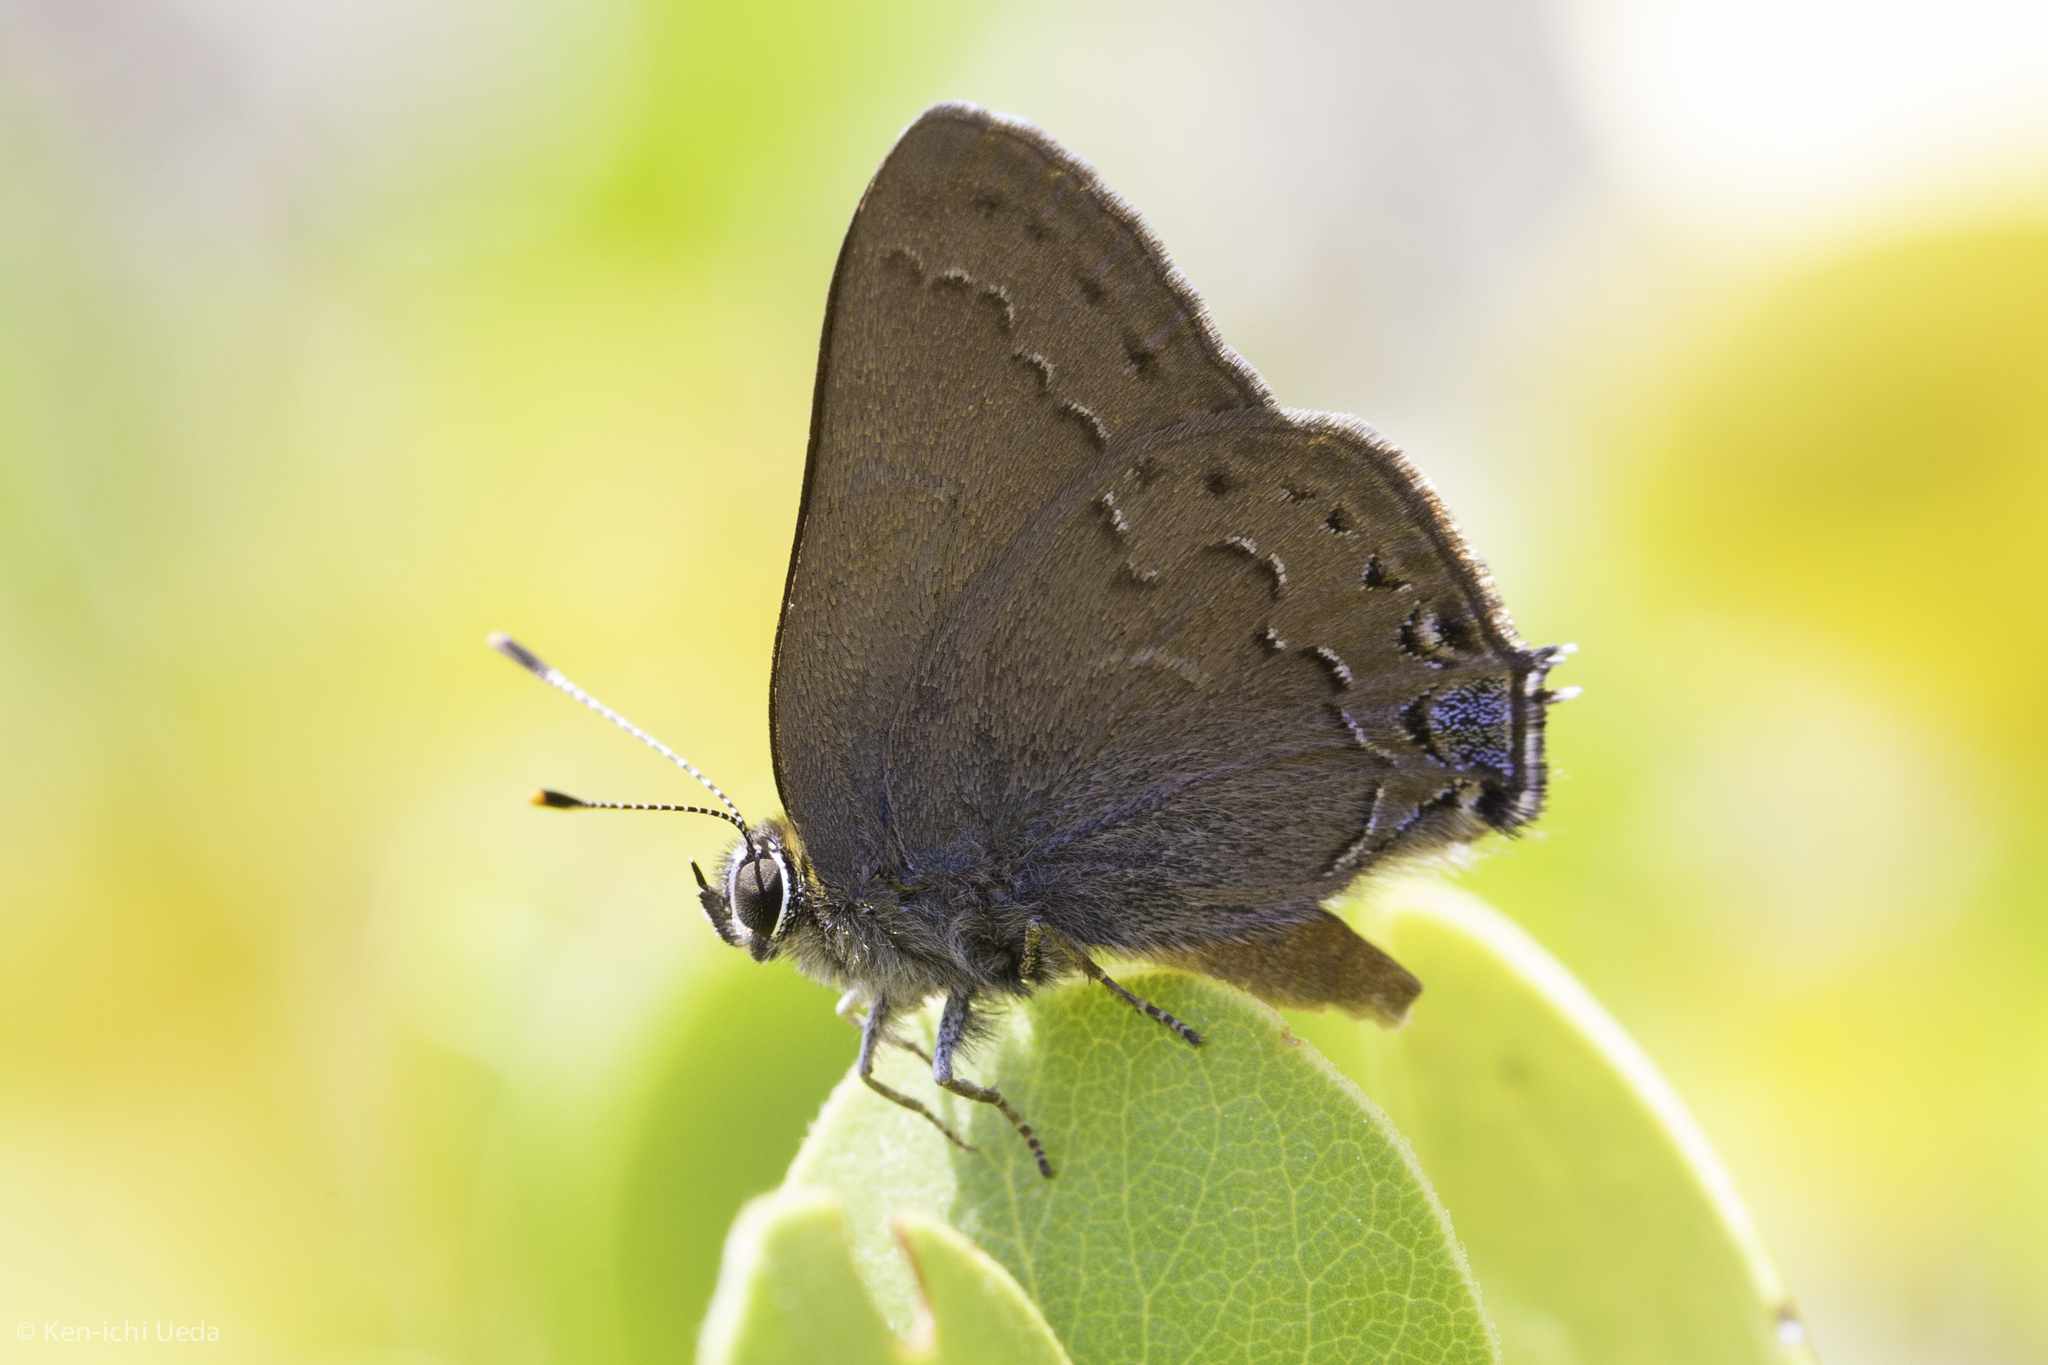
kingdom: Animalia
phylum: Arthropoda
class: Insecta
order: Lepidoptera
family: Lycaenidae
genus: Strymon
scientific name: Strymon saepium
